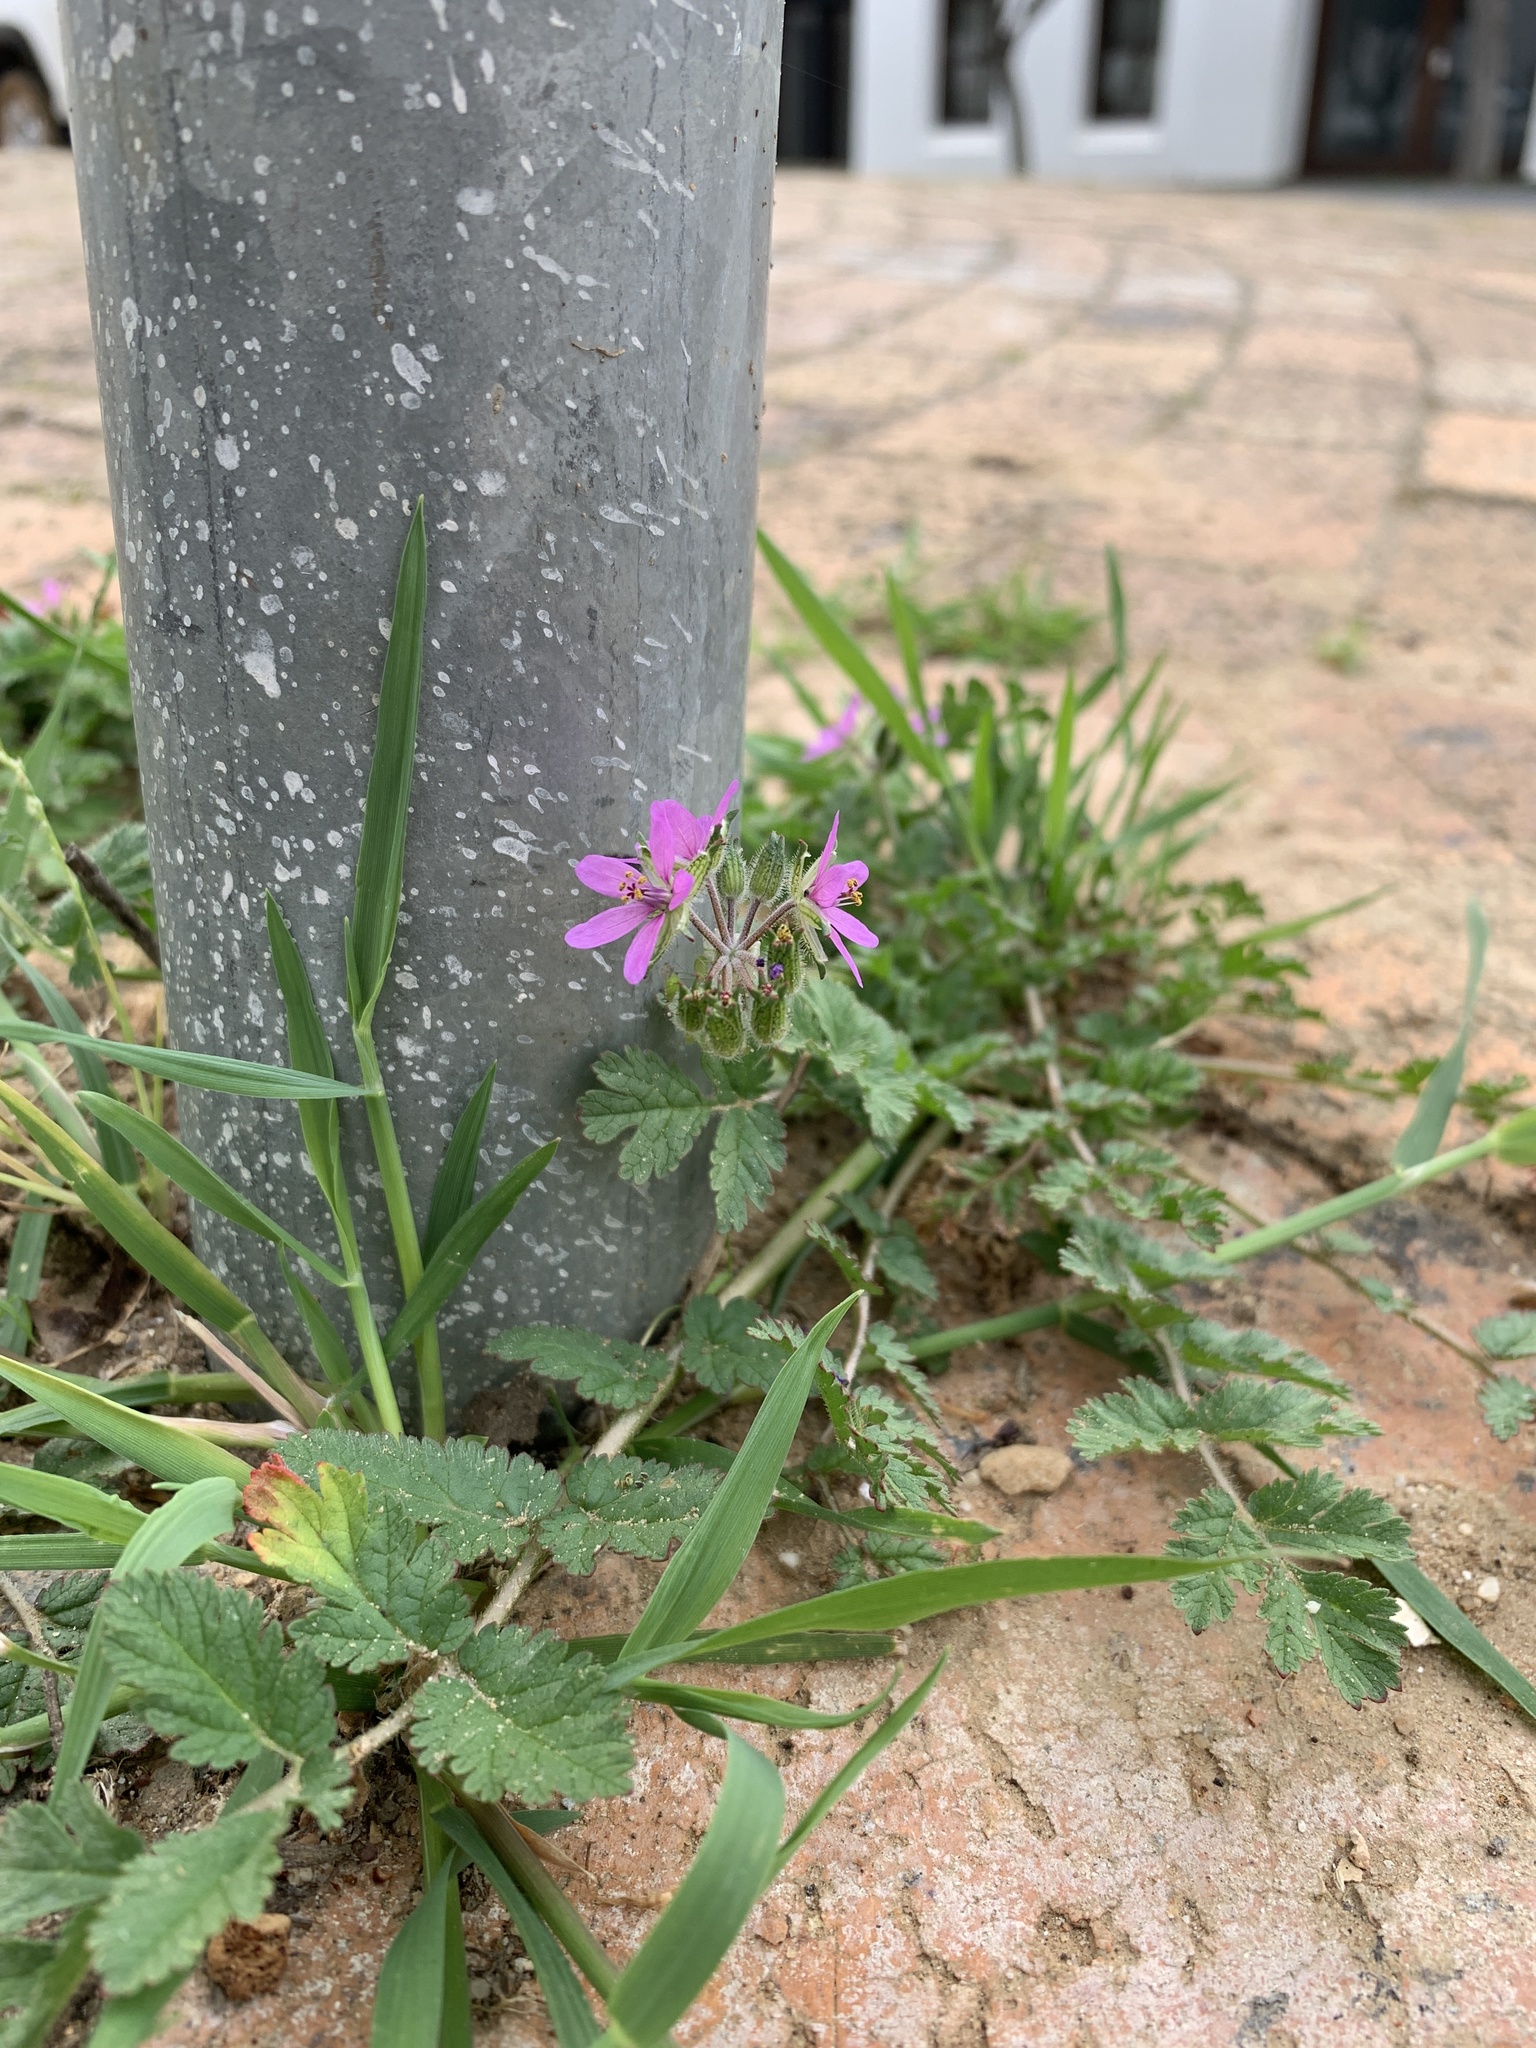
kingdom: Plantae
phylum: Tracheophyta
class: Magnoliopsida
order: Geraniales
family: Geraniaceae
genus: Erodium
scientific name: Erodium moschatum
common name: Musk stork's-bill
